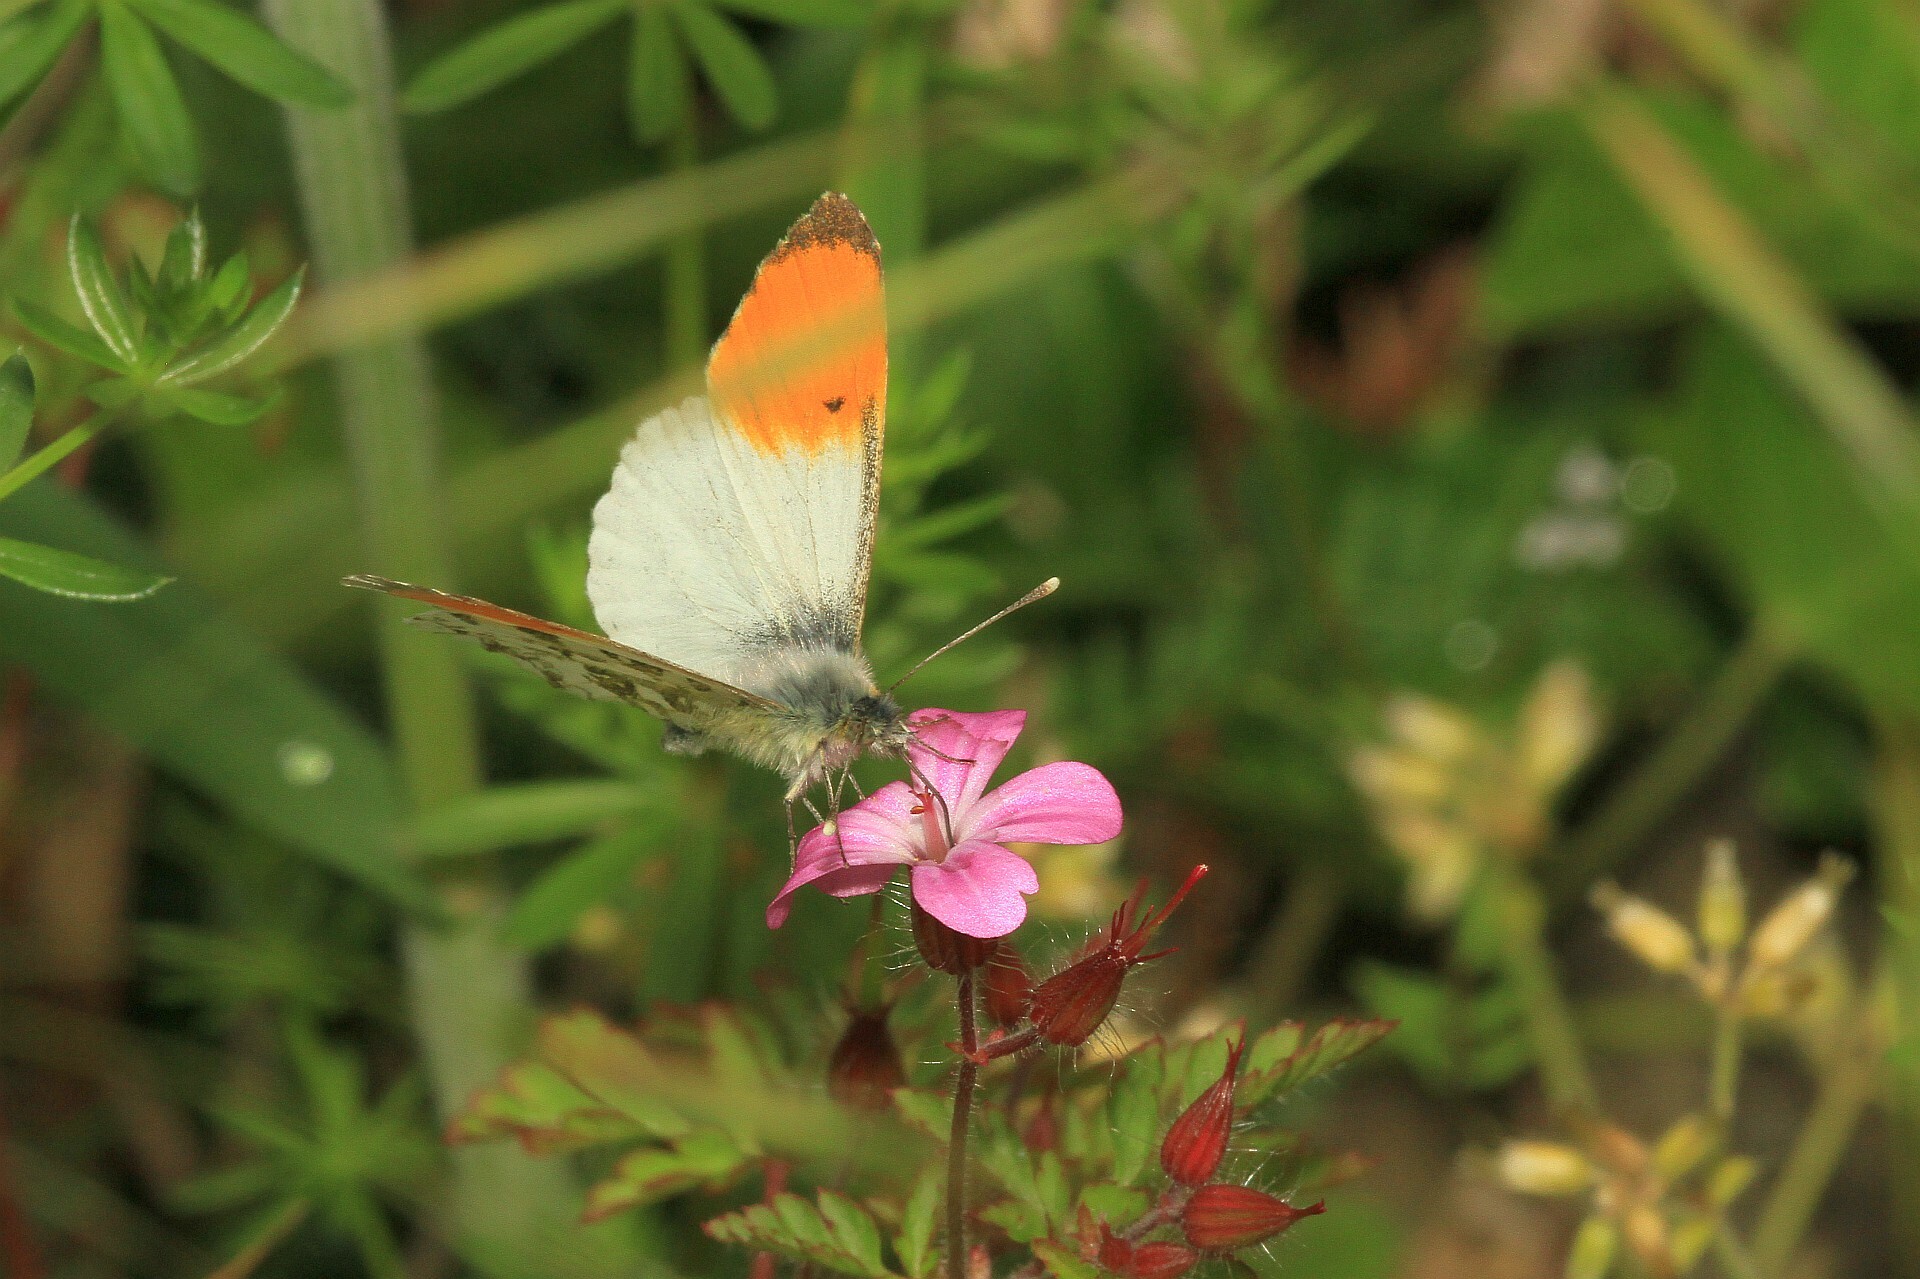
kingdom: Animalia
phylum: Arthropoda
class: Insecta
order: Lepidoptera
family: Pieridae
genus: Anthocharis
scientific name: Anthocharis cardamines
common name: Orange-tip
